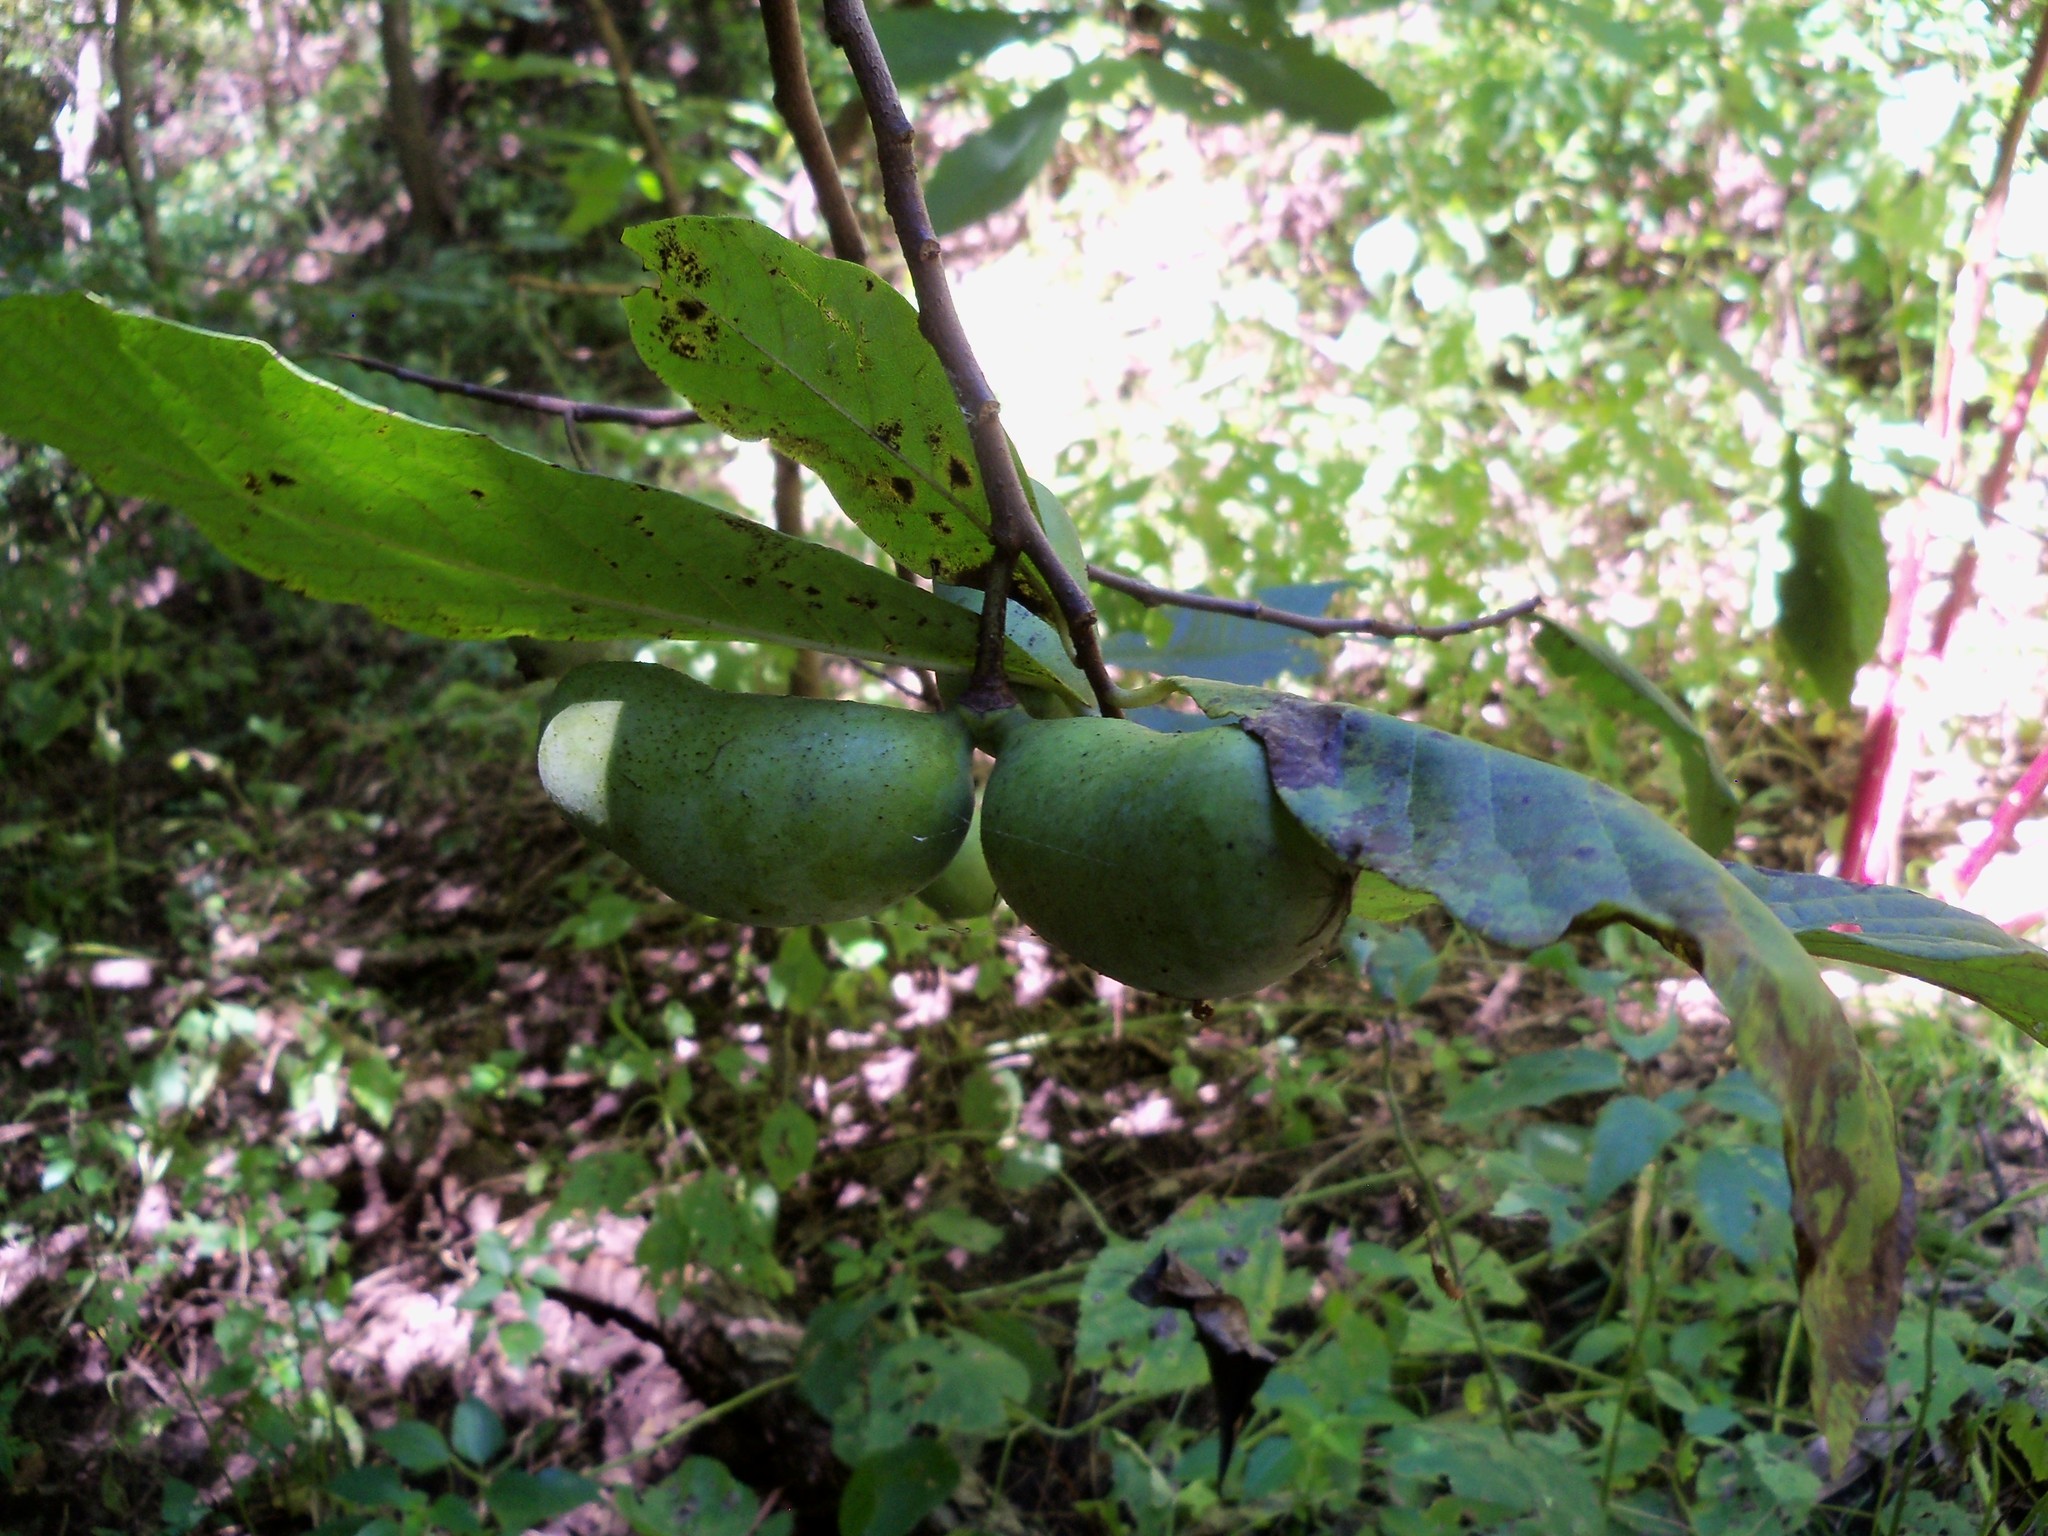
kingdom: Plantae
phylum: Tracheophyta
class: Magnoliopsida
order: Magnoliales
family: Annonaceae
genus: Asimina
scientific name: Asimina triloba
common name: Dog-banana
